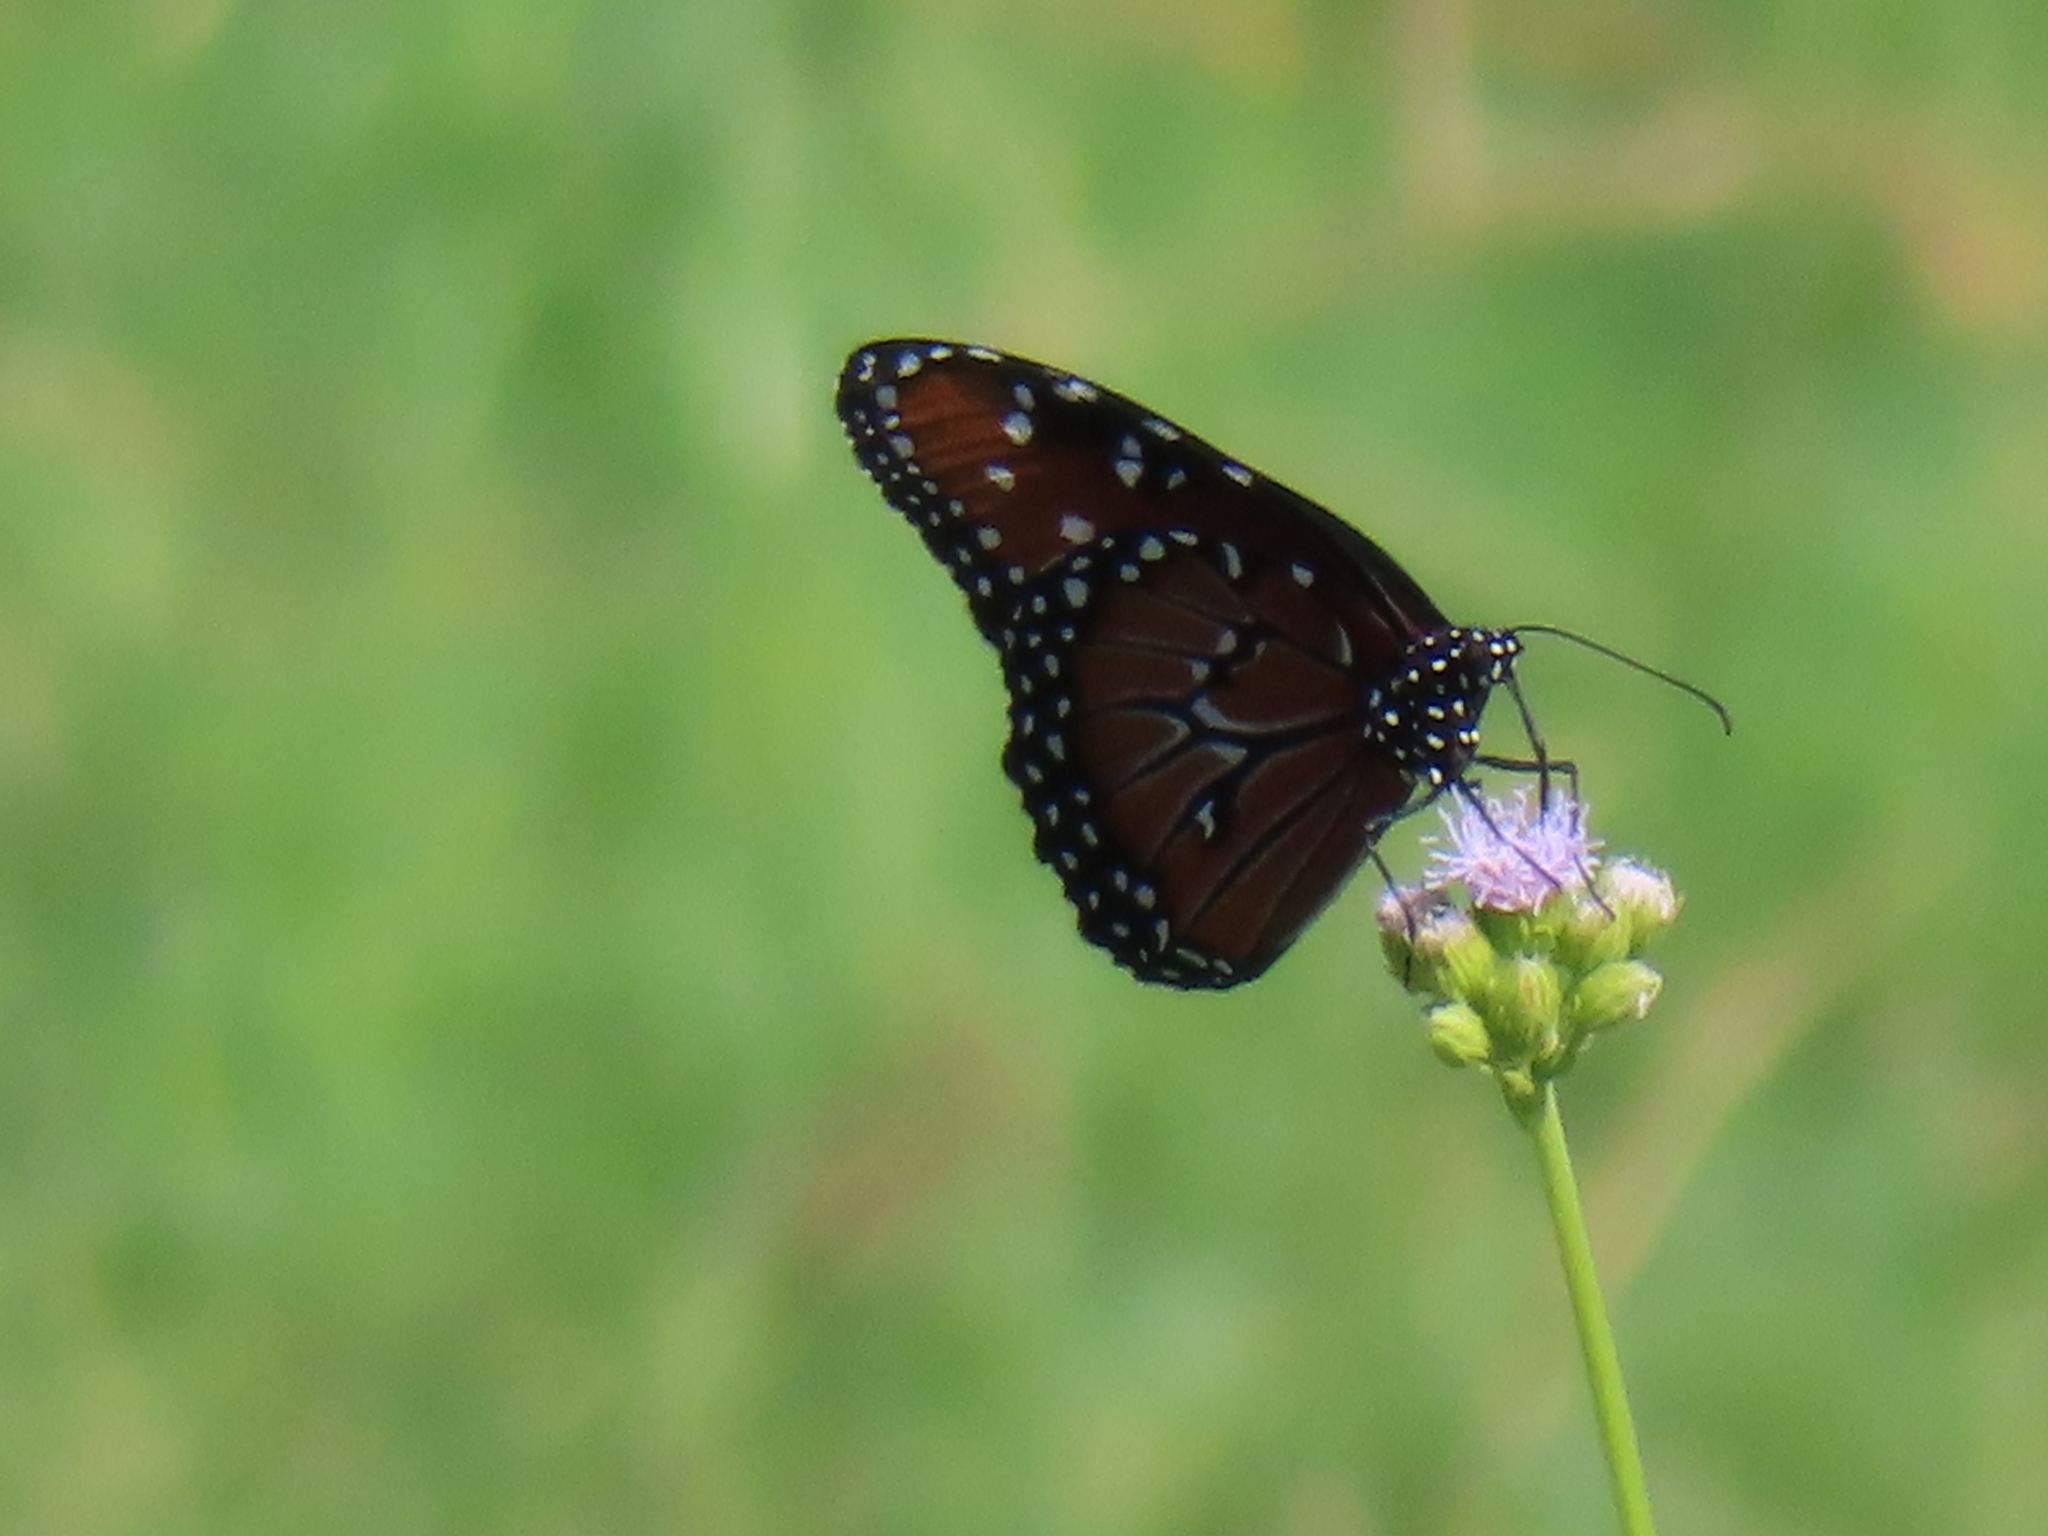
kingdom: Animalia
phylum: Arthropoda
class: Insecta
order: Lepidoptera
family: Nymphalidae
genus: Danaus
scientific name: Danaus gilippus
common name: Queen
